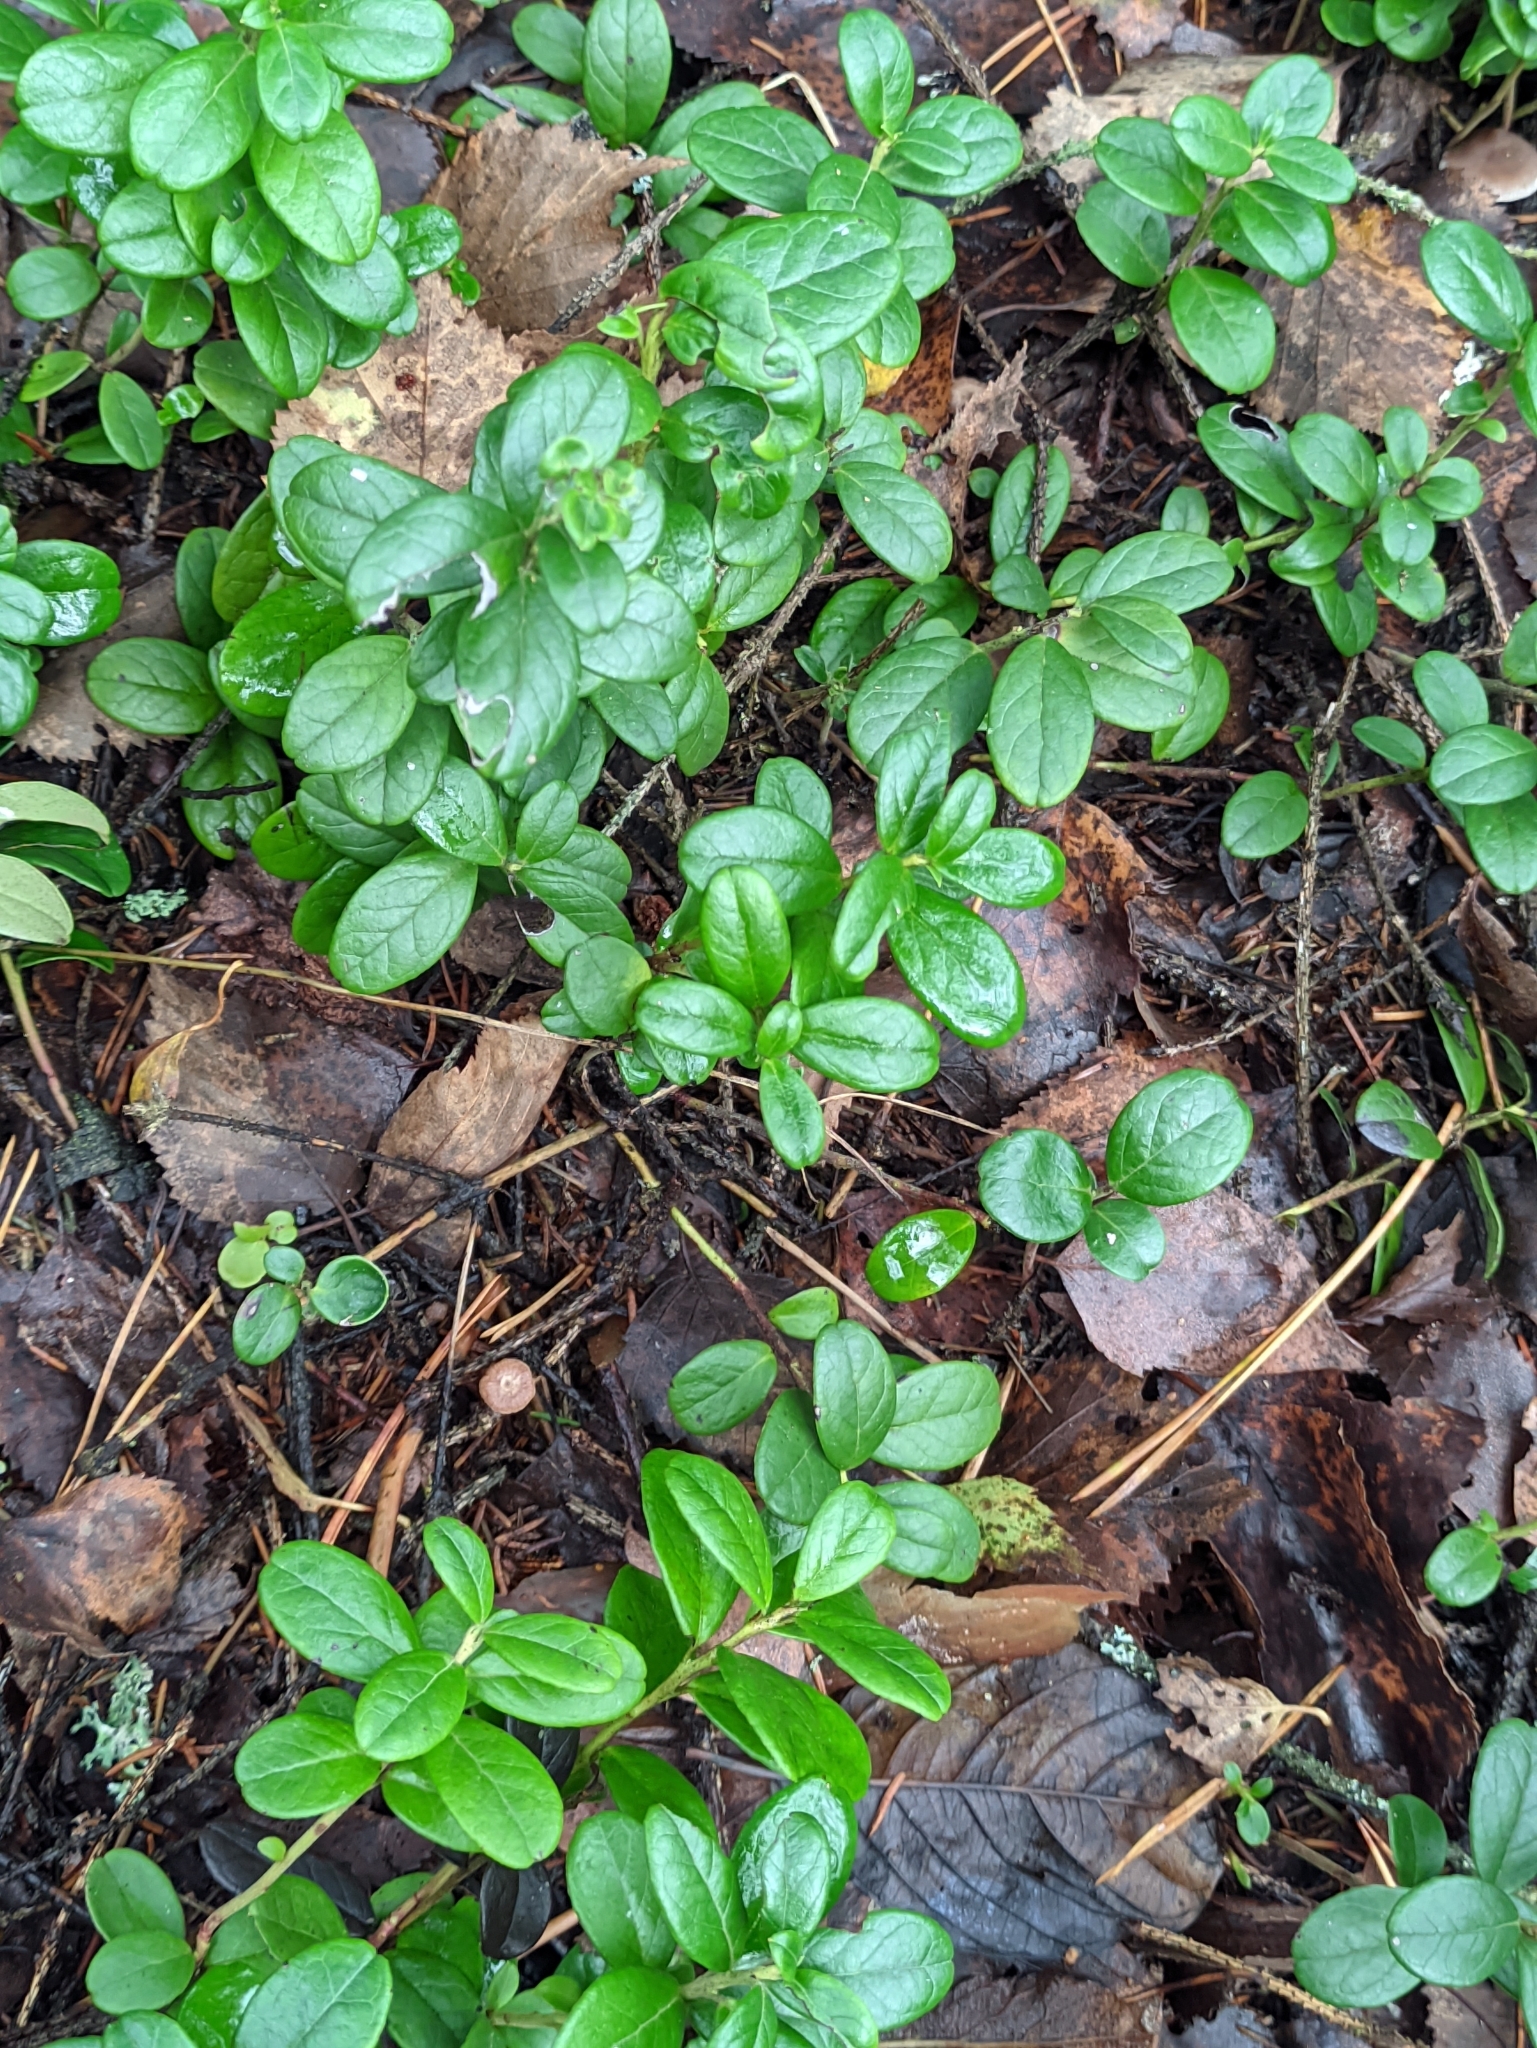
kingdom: Plantae
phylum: Tracheophyta
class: Magnoliopsida
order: Ericales
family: Ericaceae
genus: Vaccinium
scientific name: Vaccinium vitis-idaea
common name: Cowberry
